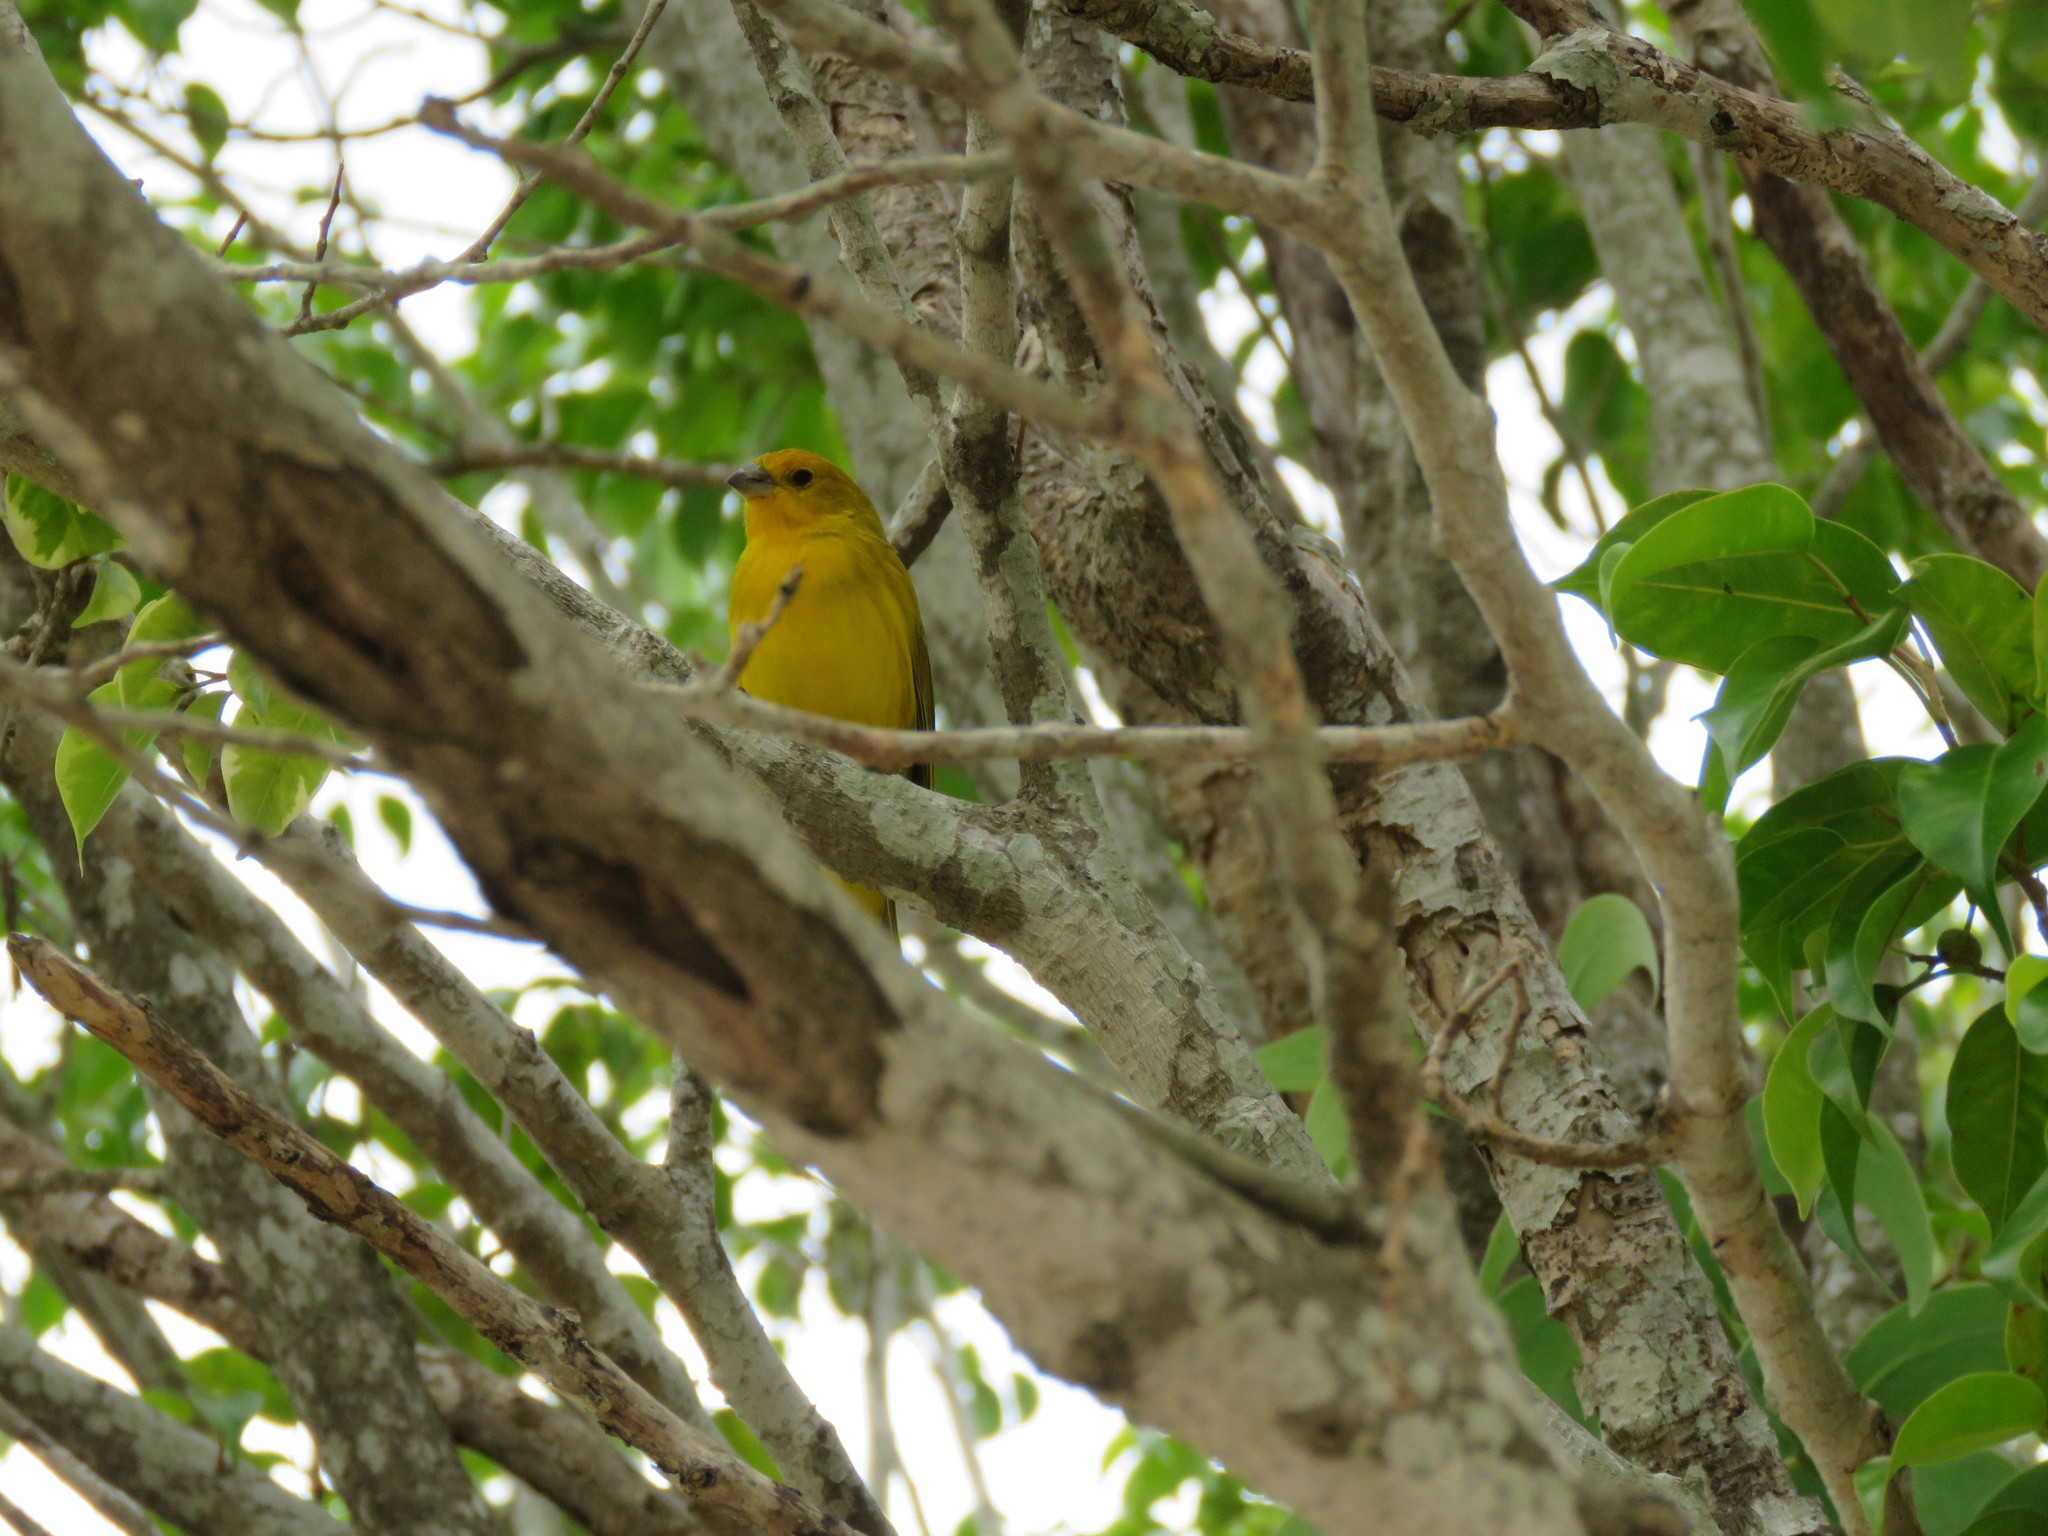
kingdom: Animalia
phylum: Chordata
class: Aves
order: Passeriformes
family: Thraupidae
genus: Sicalis
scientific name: Sicalis flaveola
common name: Saffron finch
